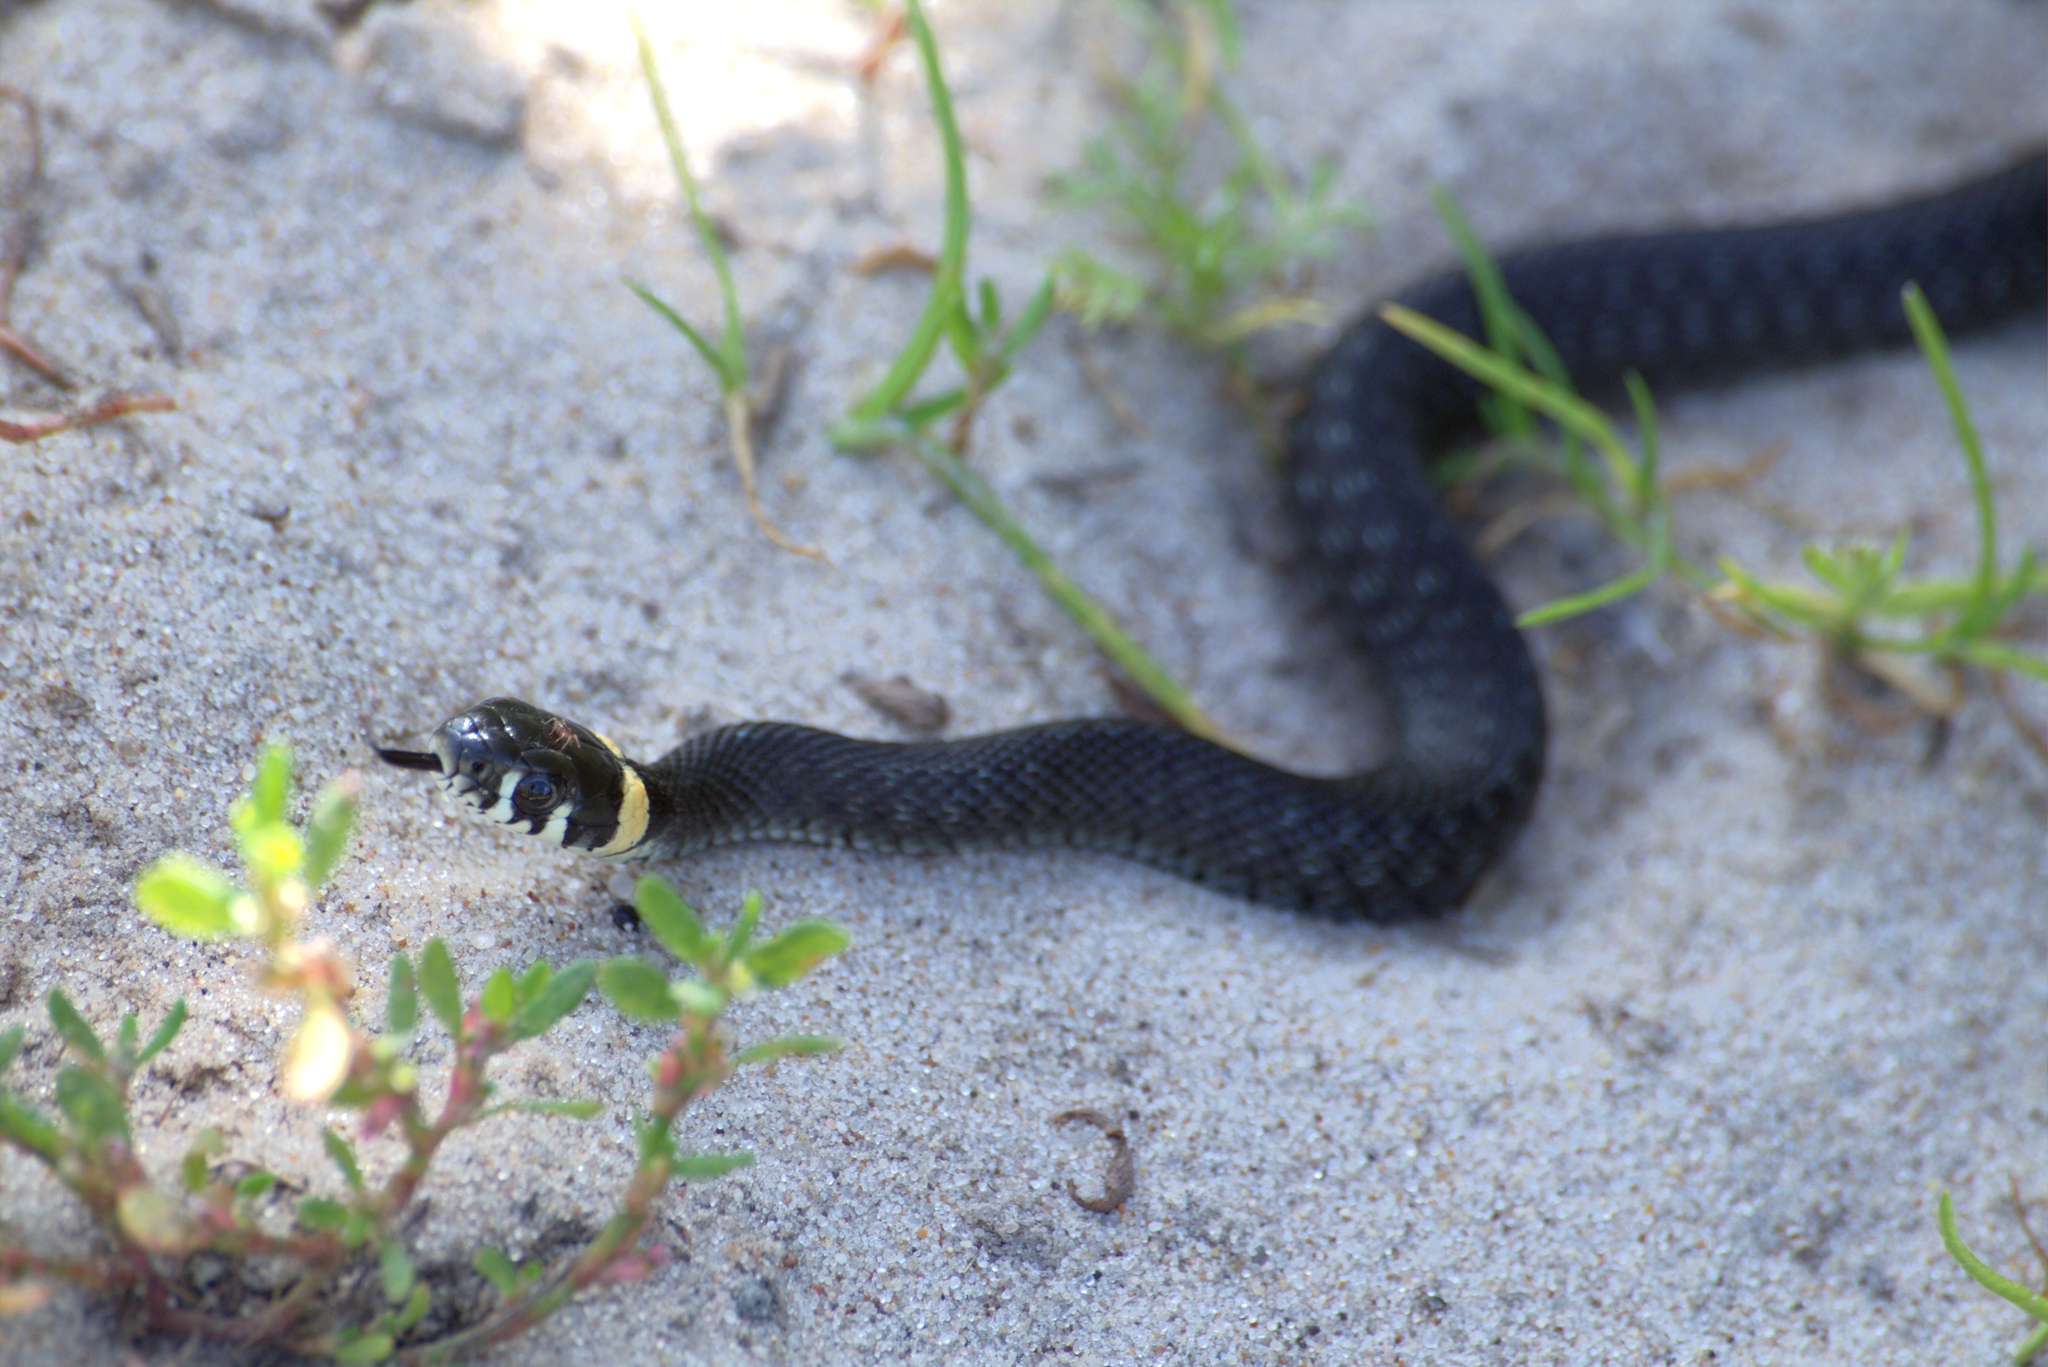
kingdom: Animalia
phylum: Chordata
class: Squamata
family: Colubridae
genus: Natrix
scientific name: Natrix natrix
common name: Grass snake
